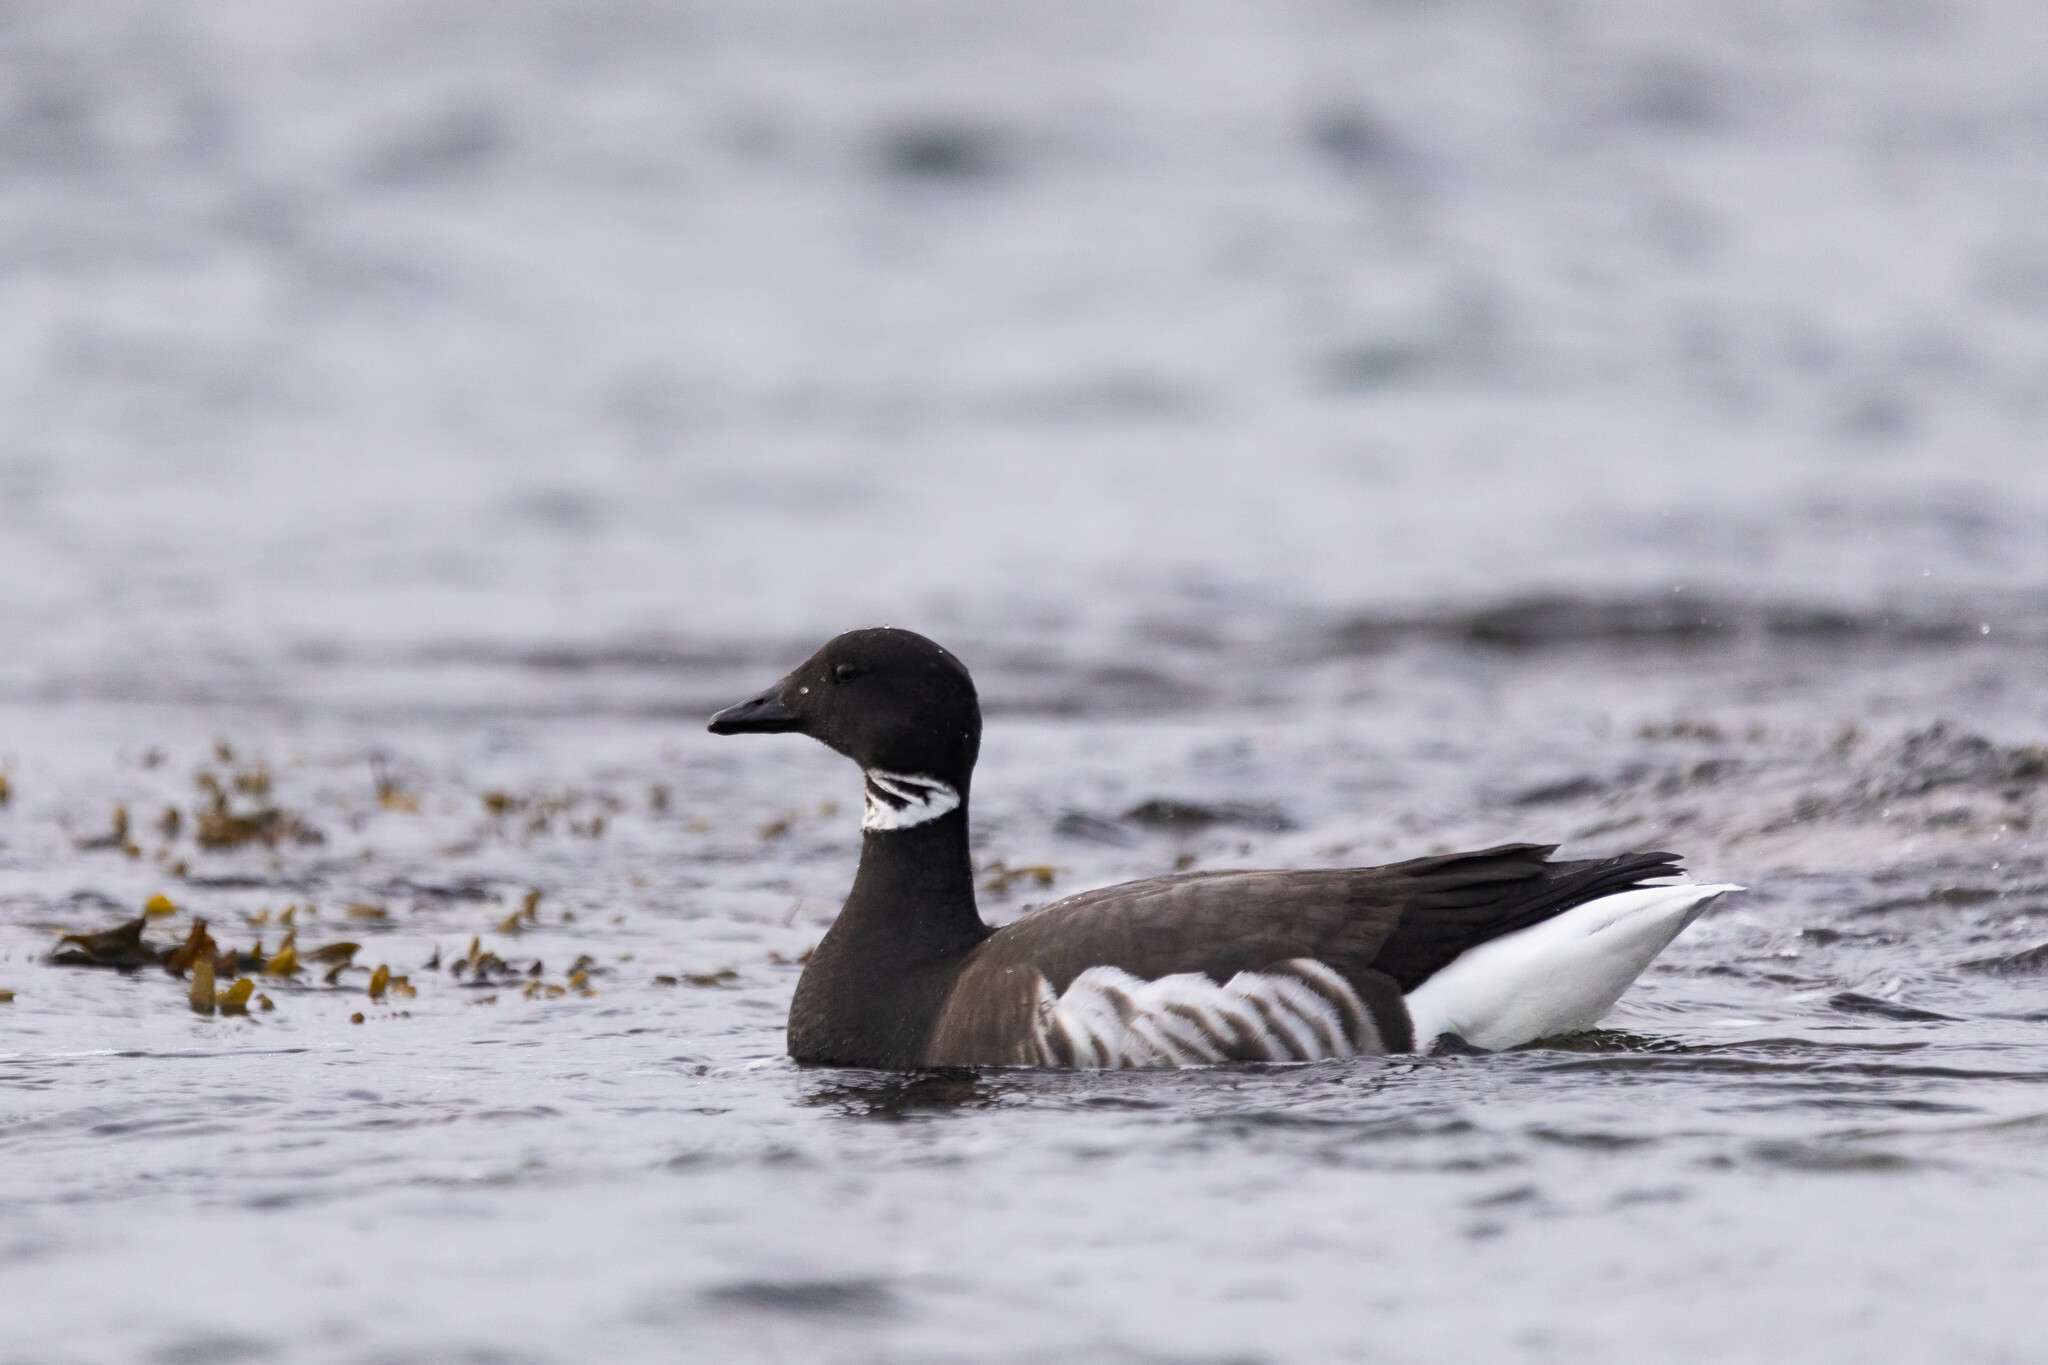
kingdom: Animalia
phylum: Chordata
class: Aves
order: Anseriformes
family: Anatidae
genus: Branta
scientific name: Branta bernicla
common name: Brant goose
